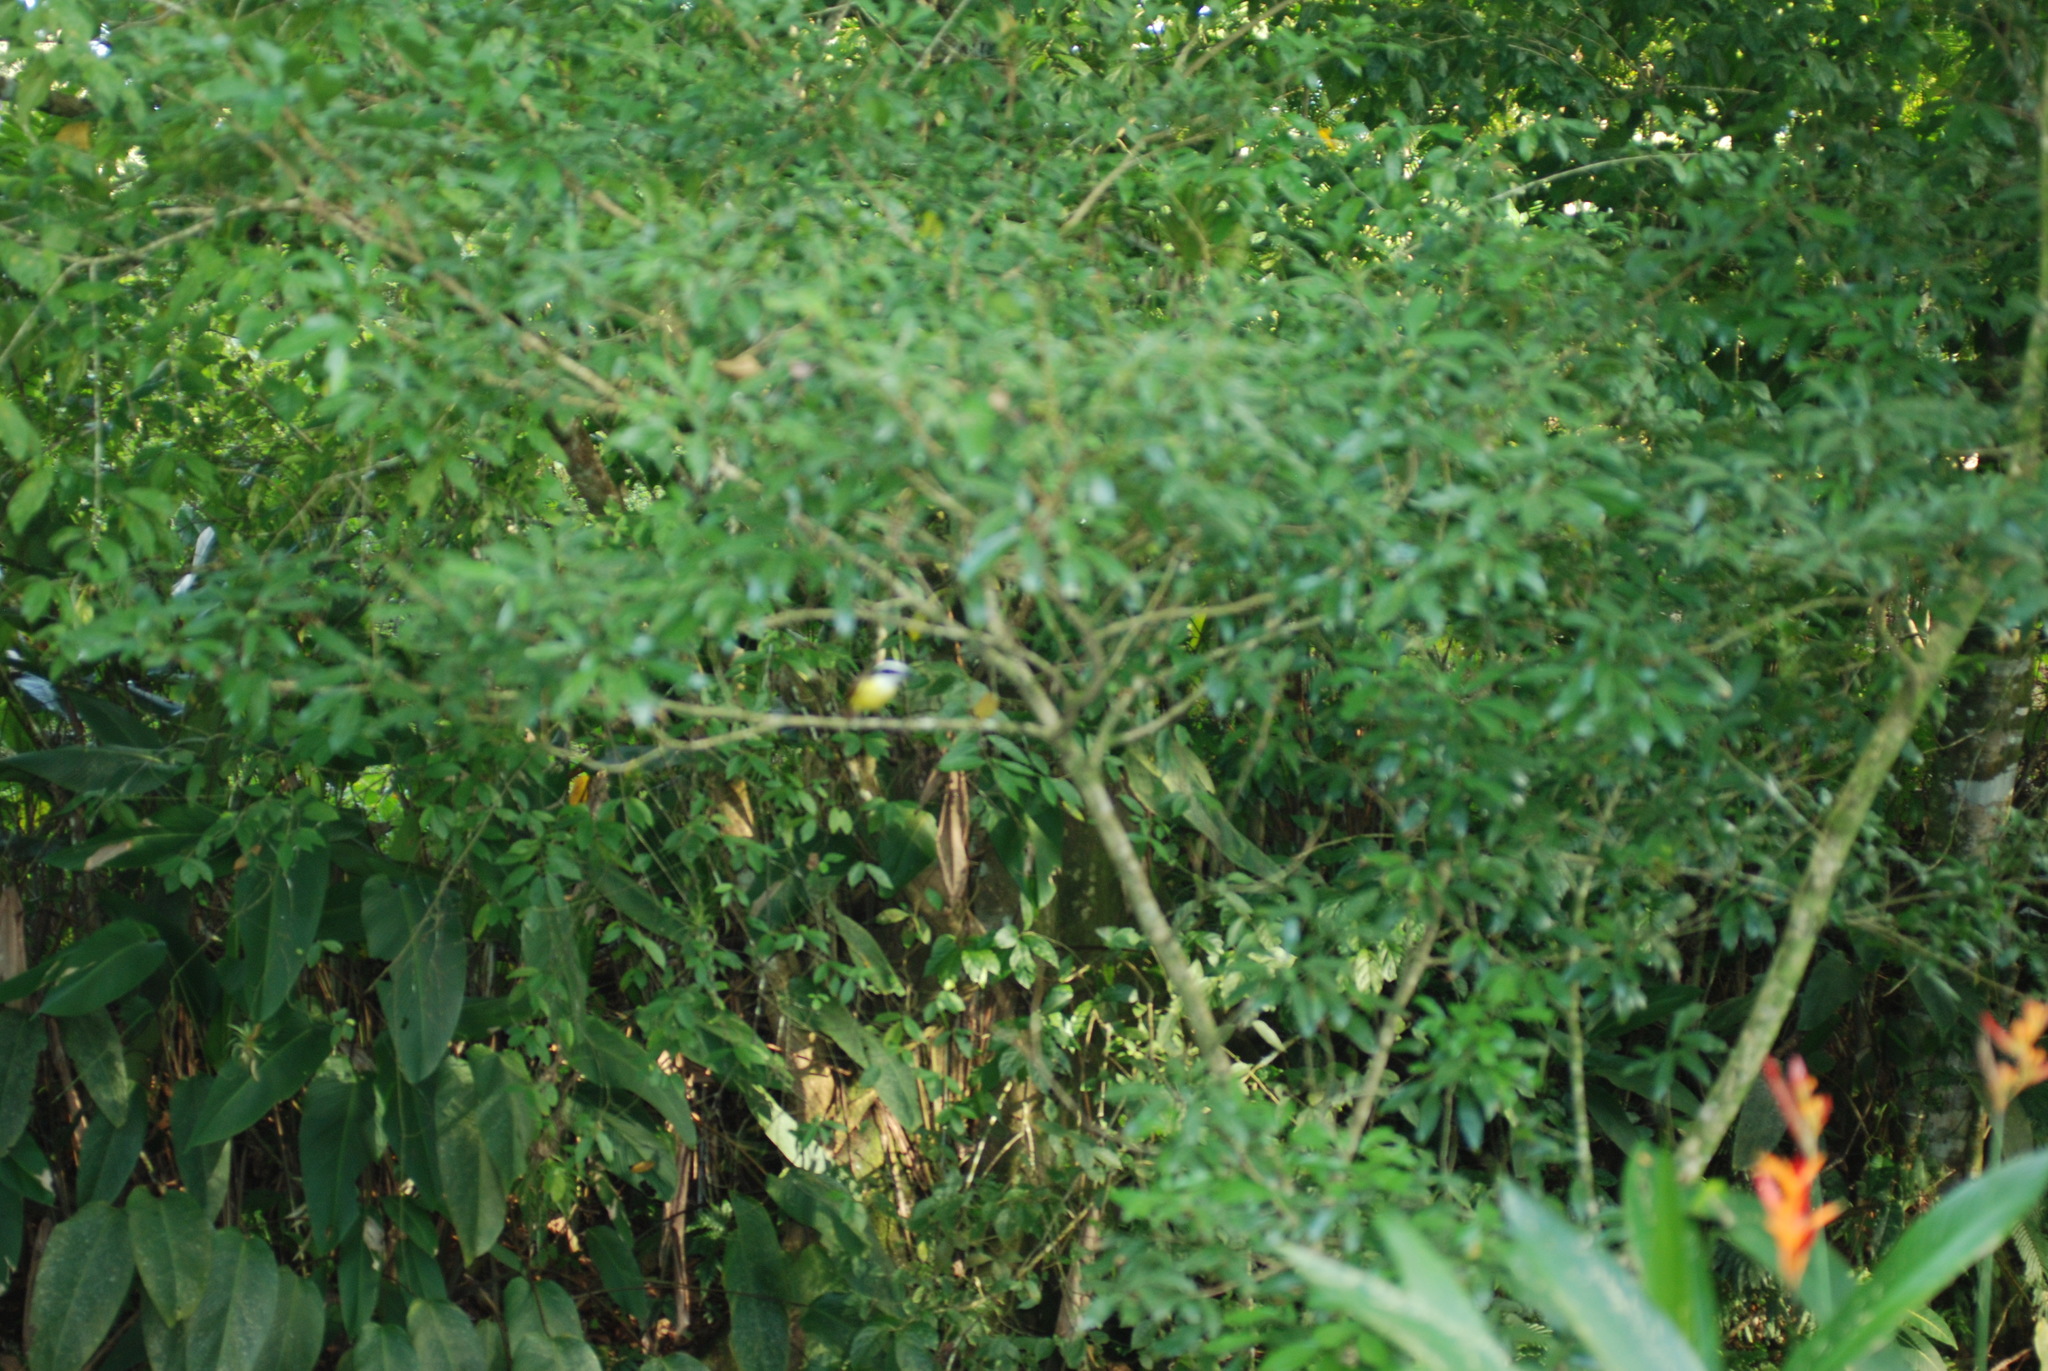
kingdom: Animalia
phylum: Chordata
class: Aves
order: Passeriformes
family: Tyrannidae
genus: Pitangus
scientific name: Pitangus sulphuratus
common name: Great kiskadee
